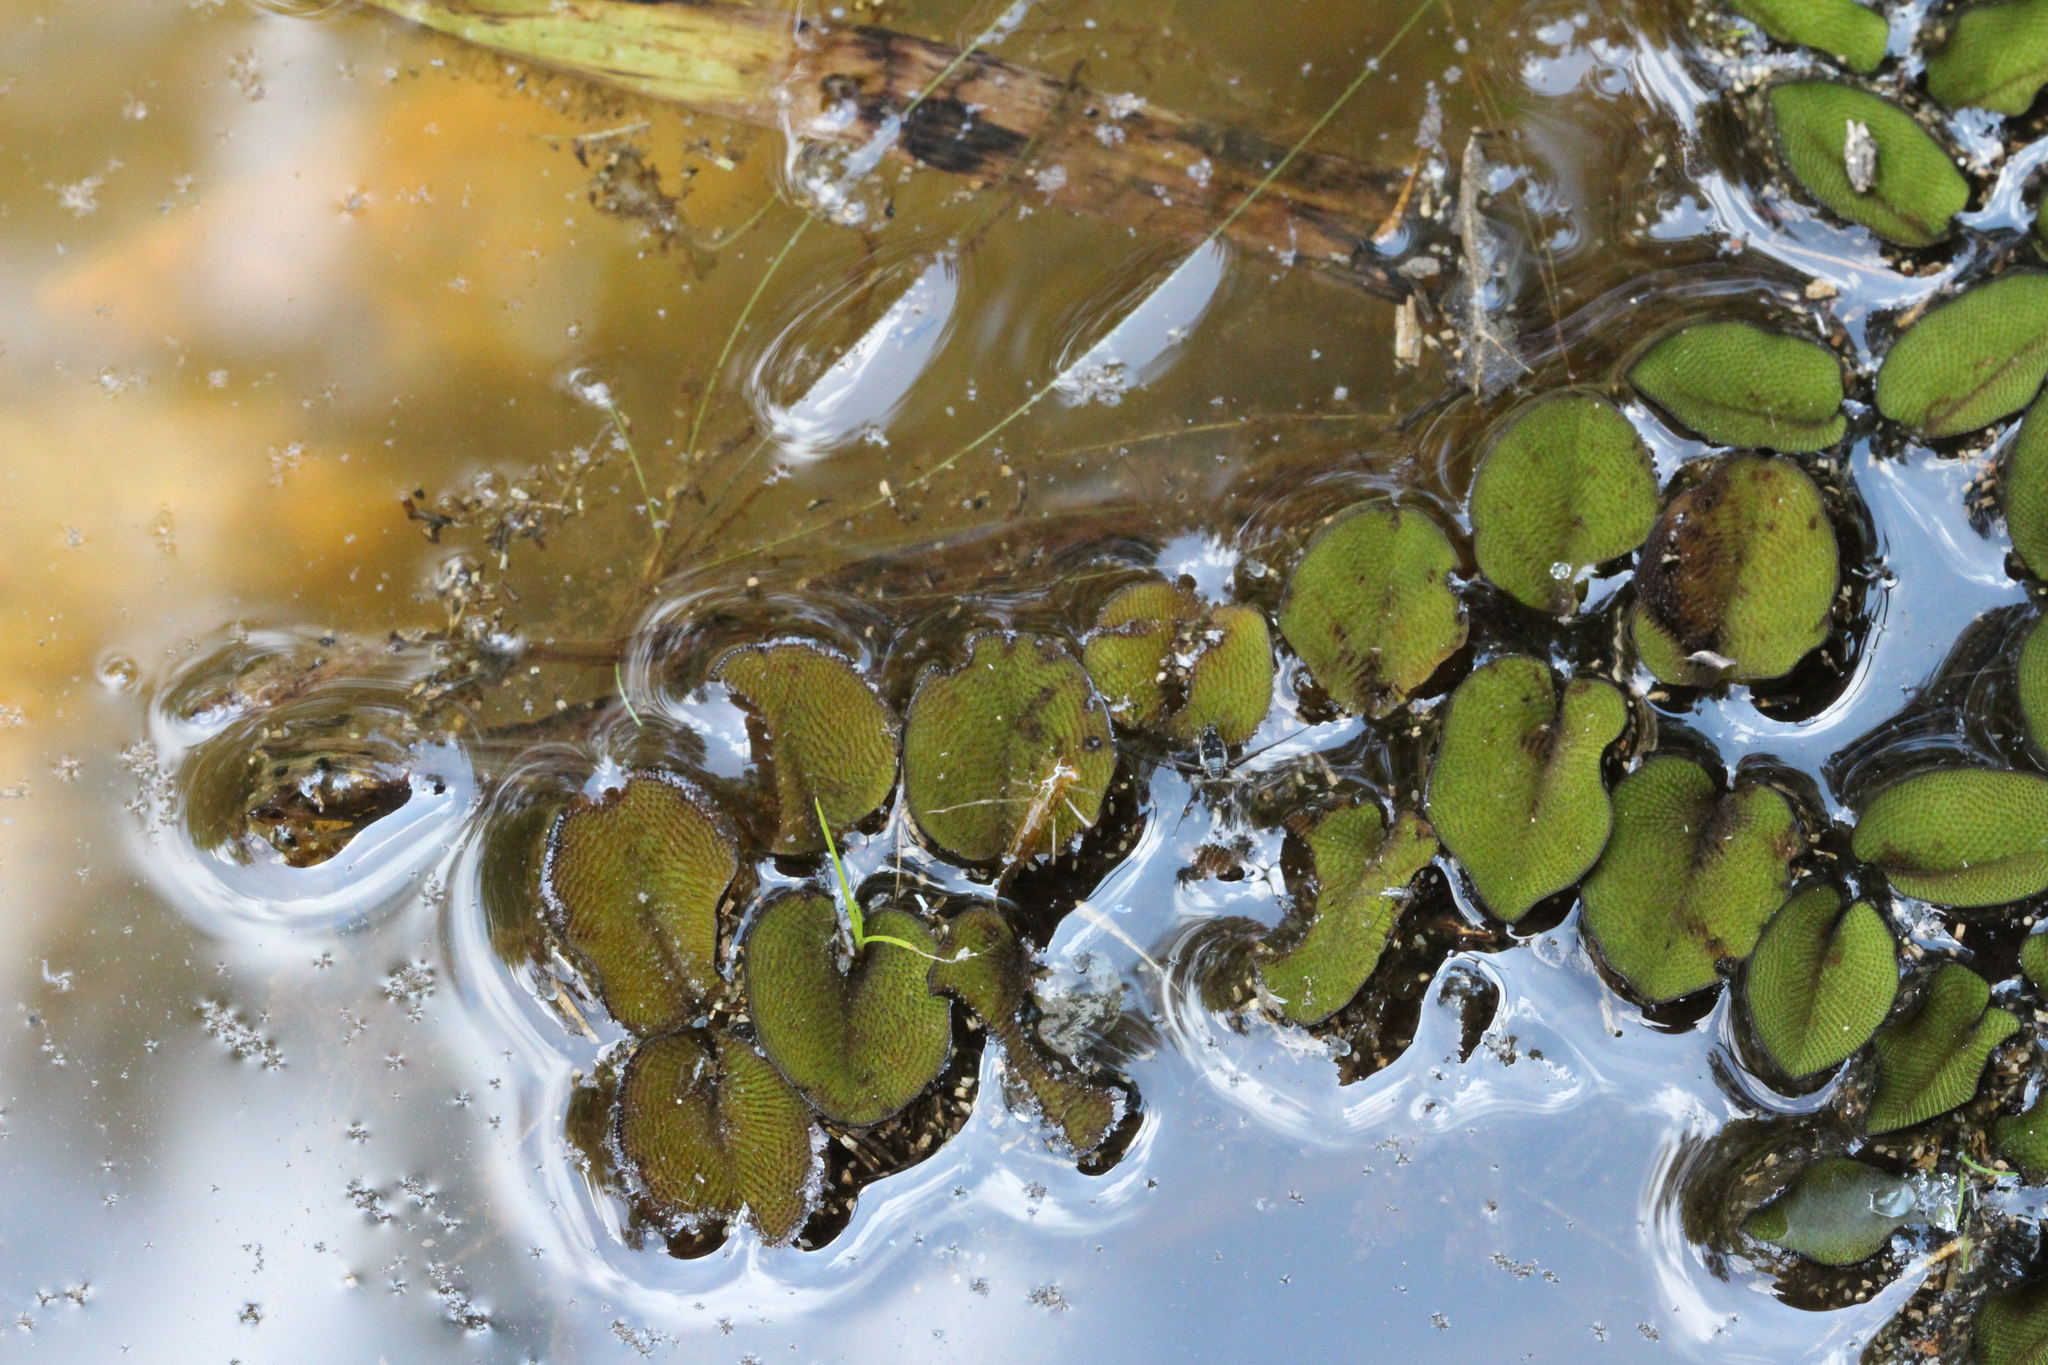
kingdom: Plantae
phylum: Tracheophyta
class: Polypodiopsida
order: Salviniales
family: Salviniaceae
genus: Salvinia
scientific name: Salvinia molesta
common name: Kariba weed
